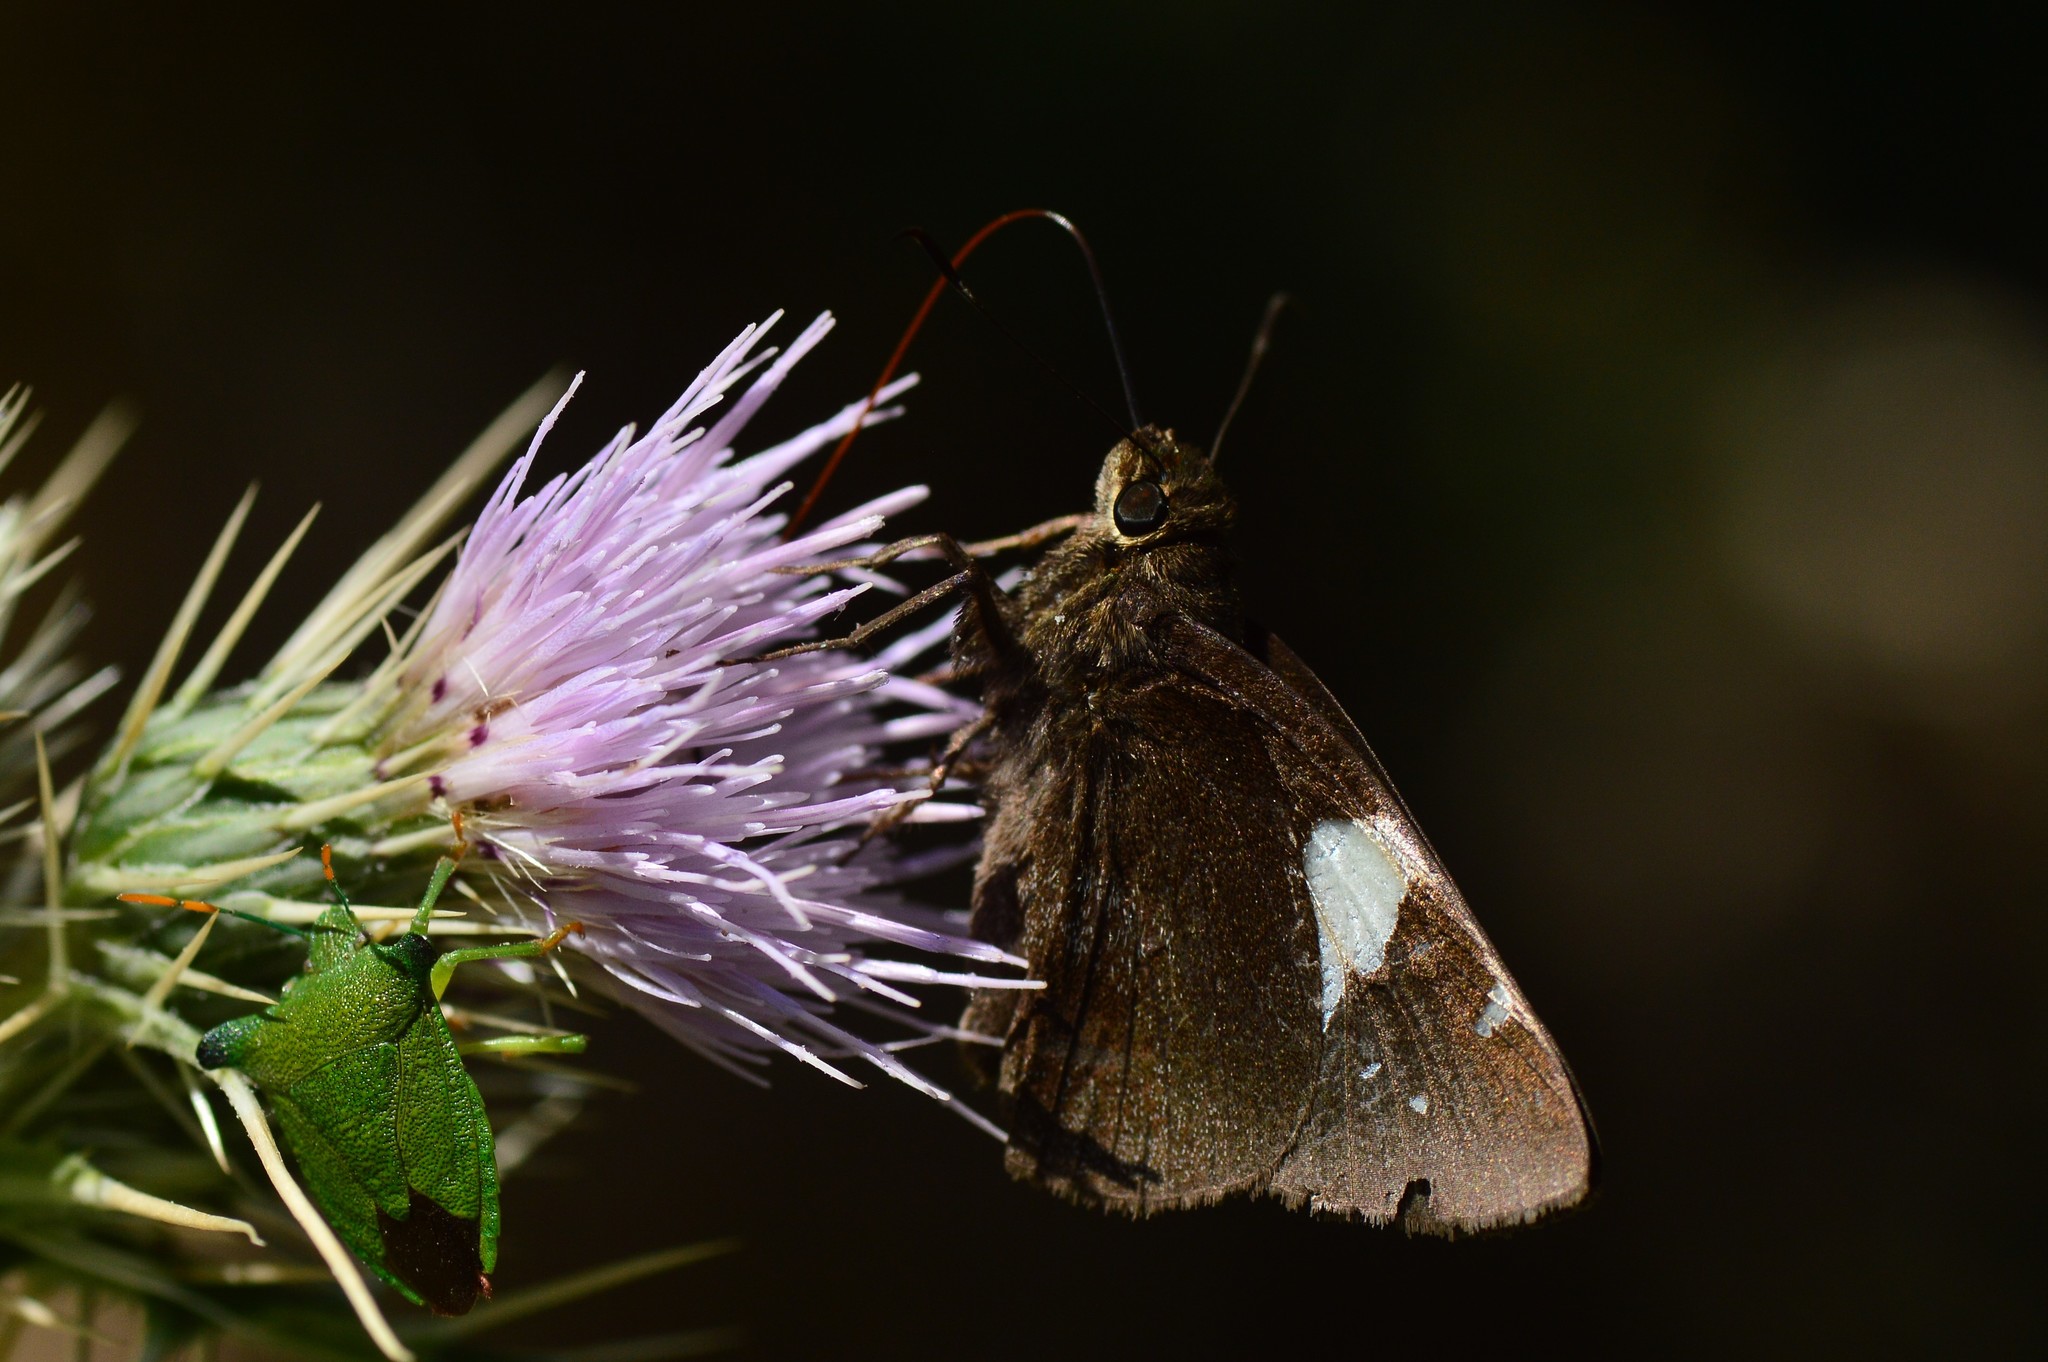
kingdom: Animalia
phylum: Arthropoda
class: Insecta
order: Lepidoptera
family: Hesperiidae
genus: Notocrypta
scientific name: Notocrypta feisthamelii
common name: Spotted demon
